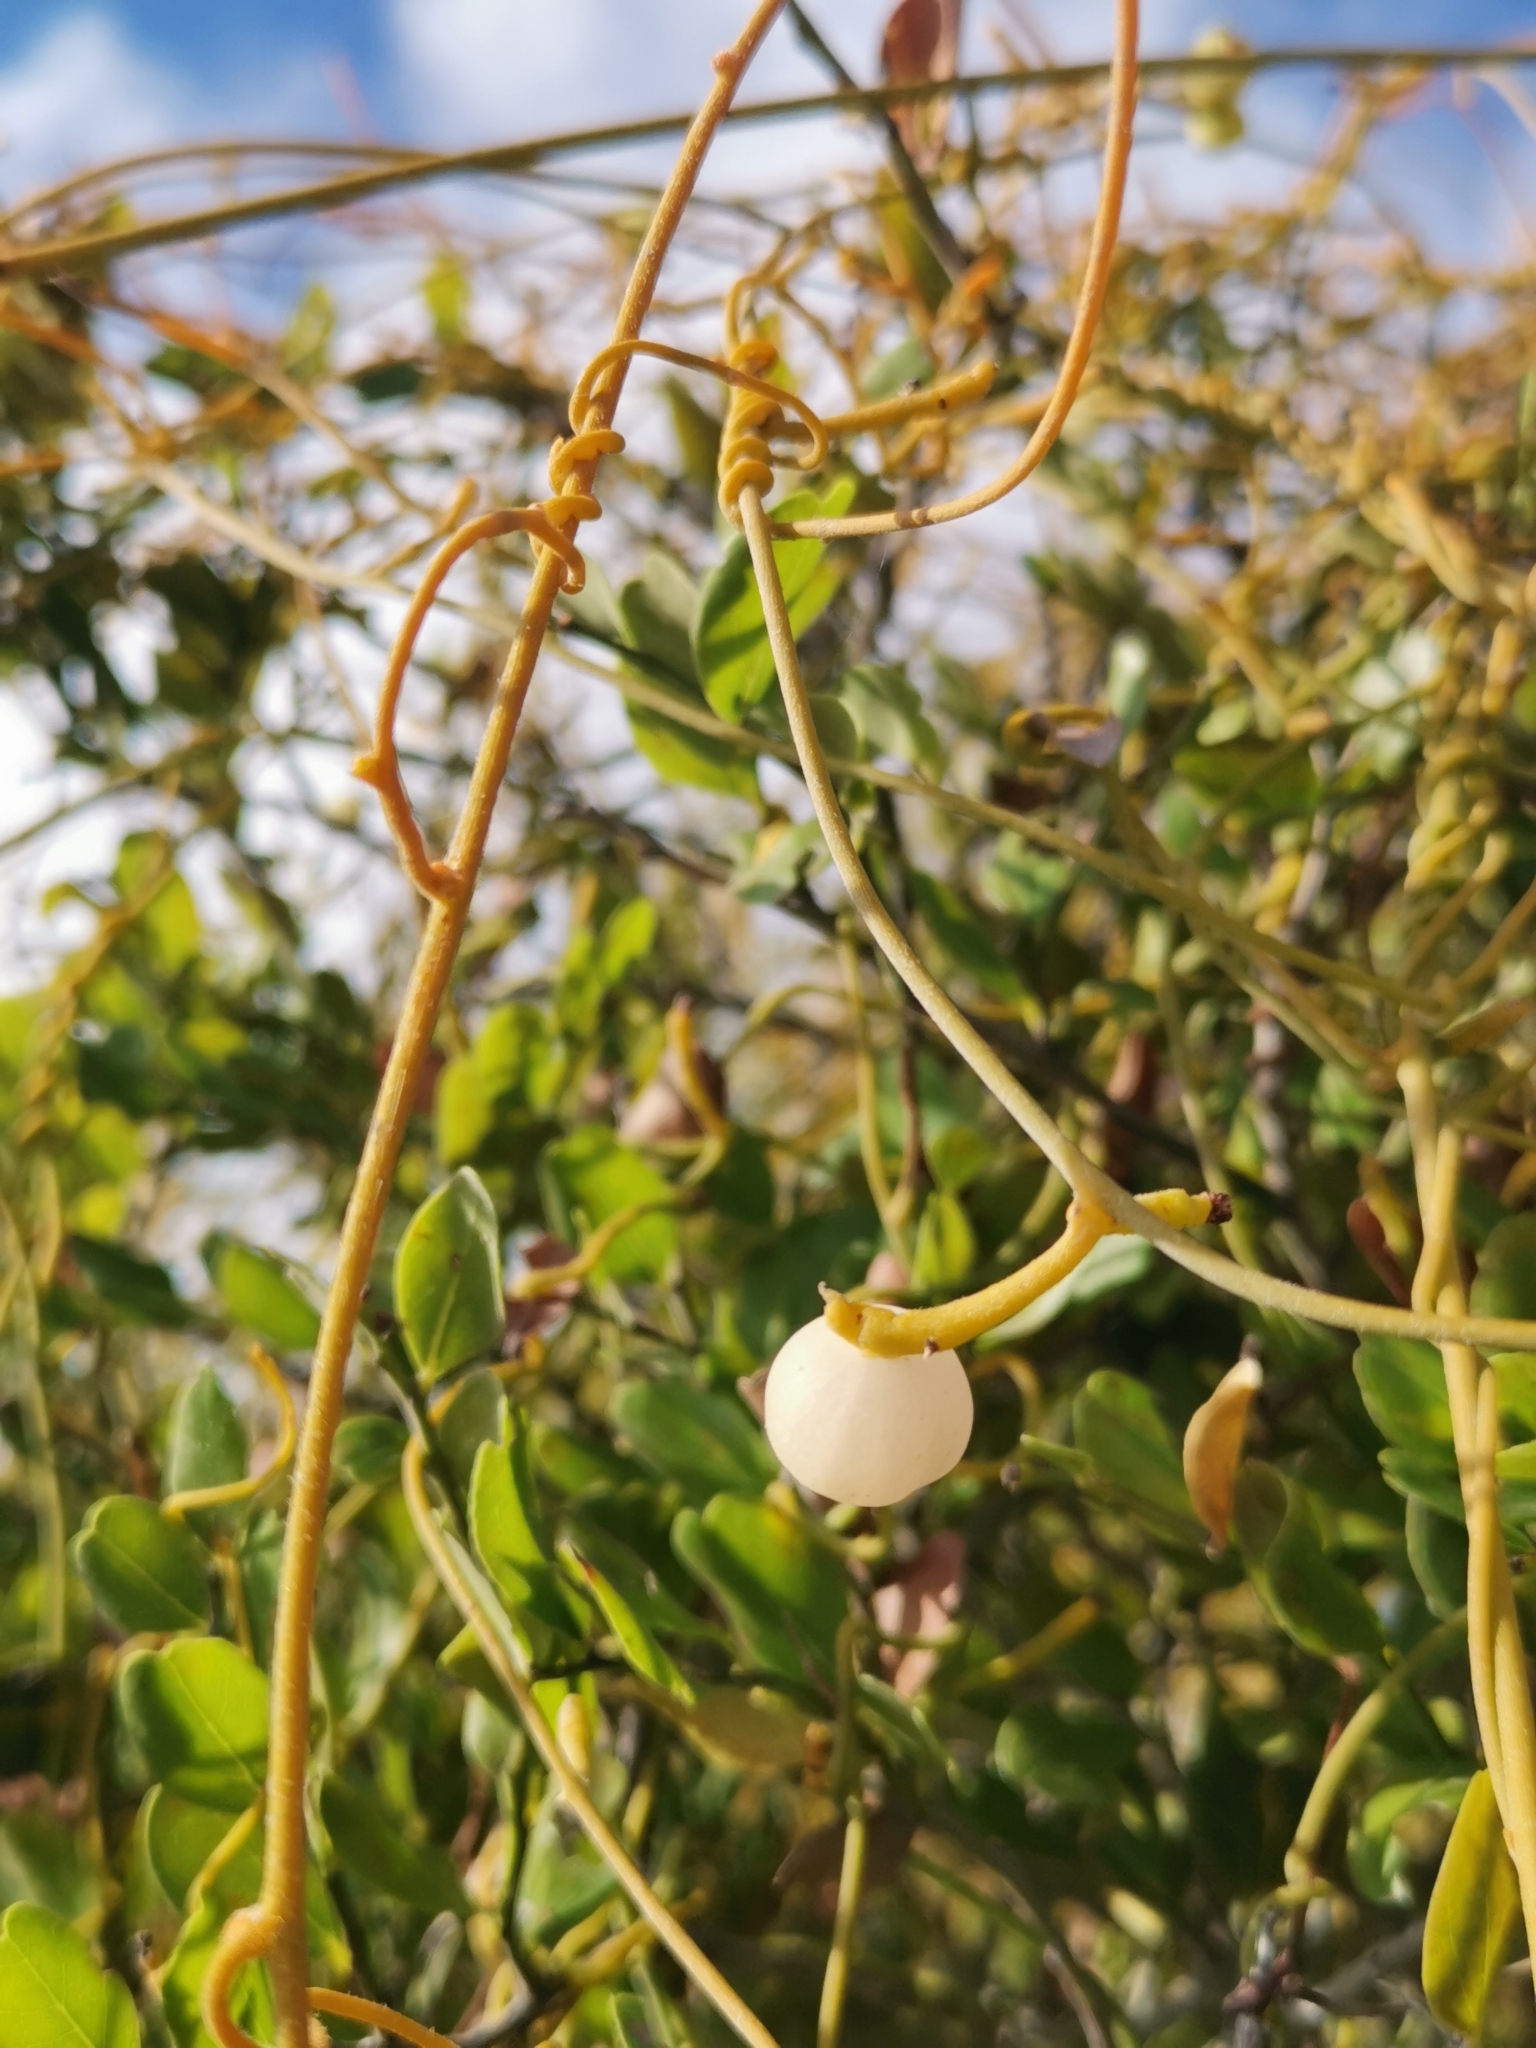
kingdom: Plantae
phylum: Tracheophyta
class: Magnoliopsida
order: Laurales
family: Lauraceae
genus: Cassytha
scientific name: Cassytha filiformis
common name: Dodder-laurel
